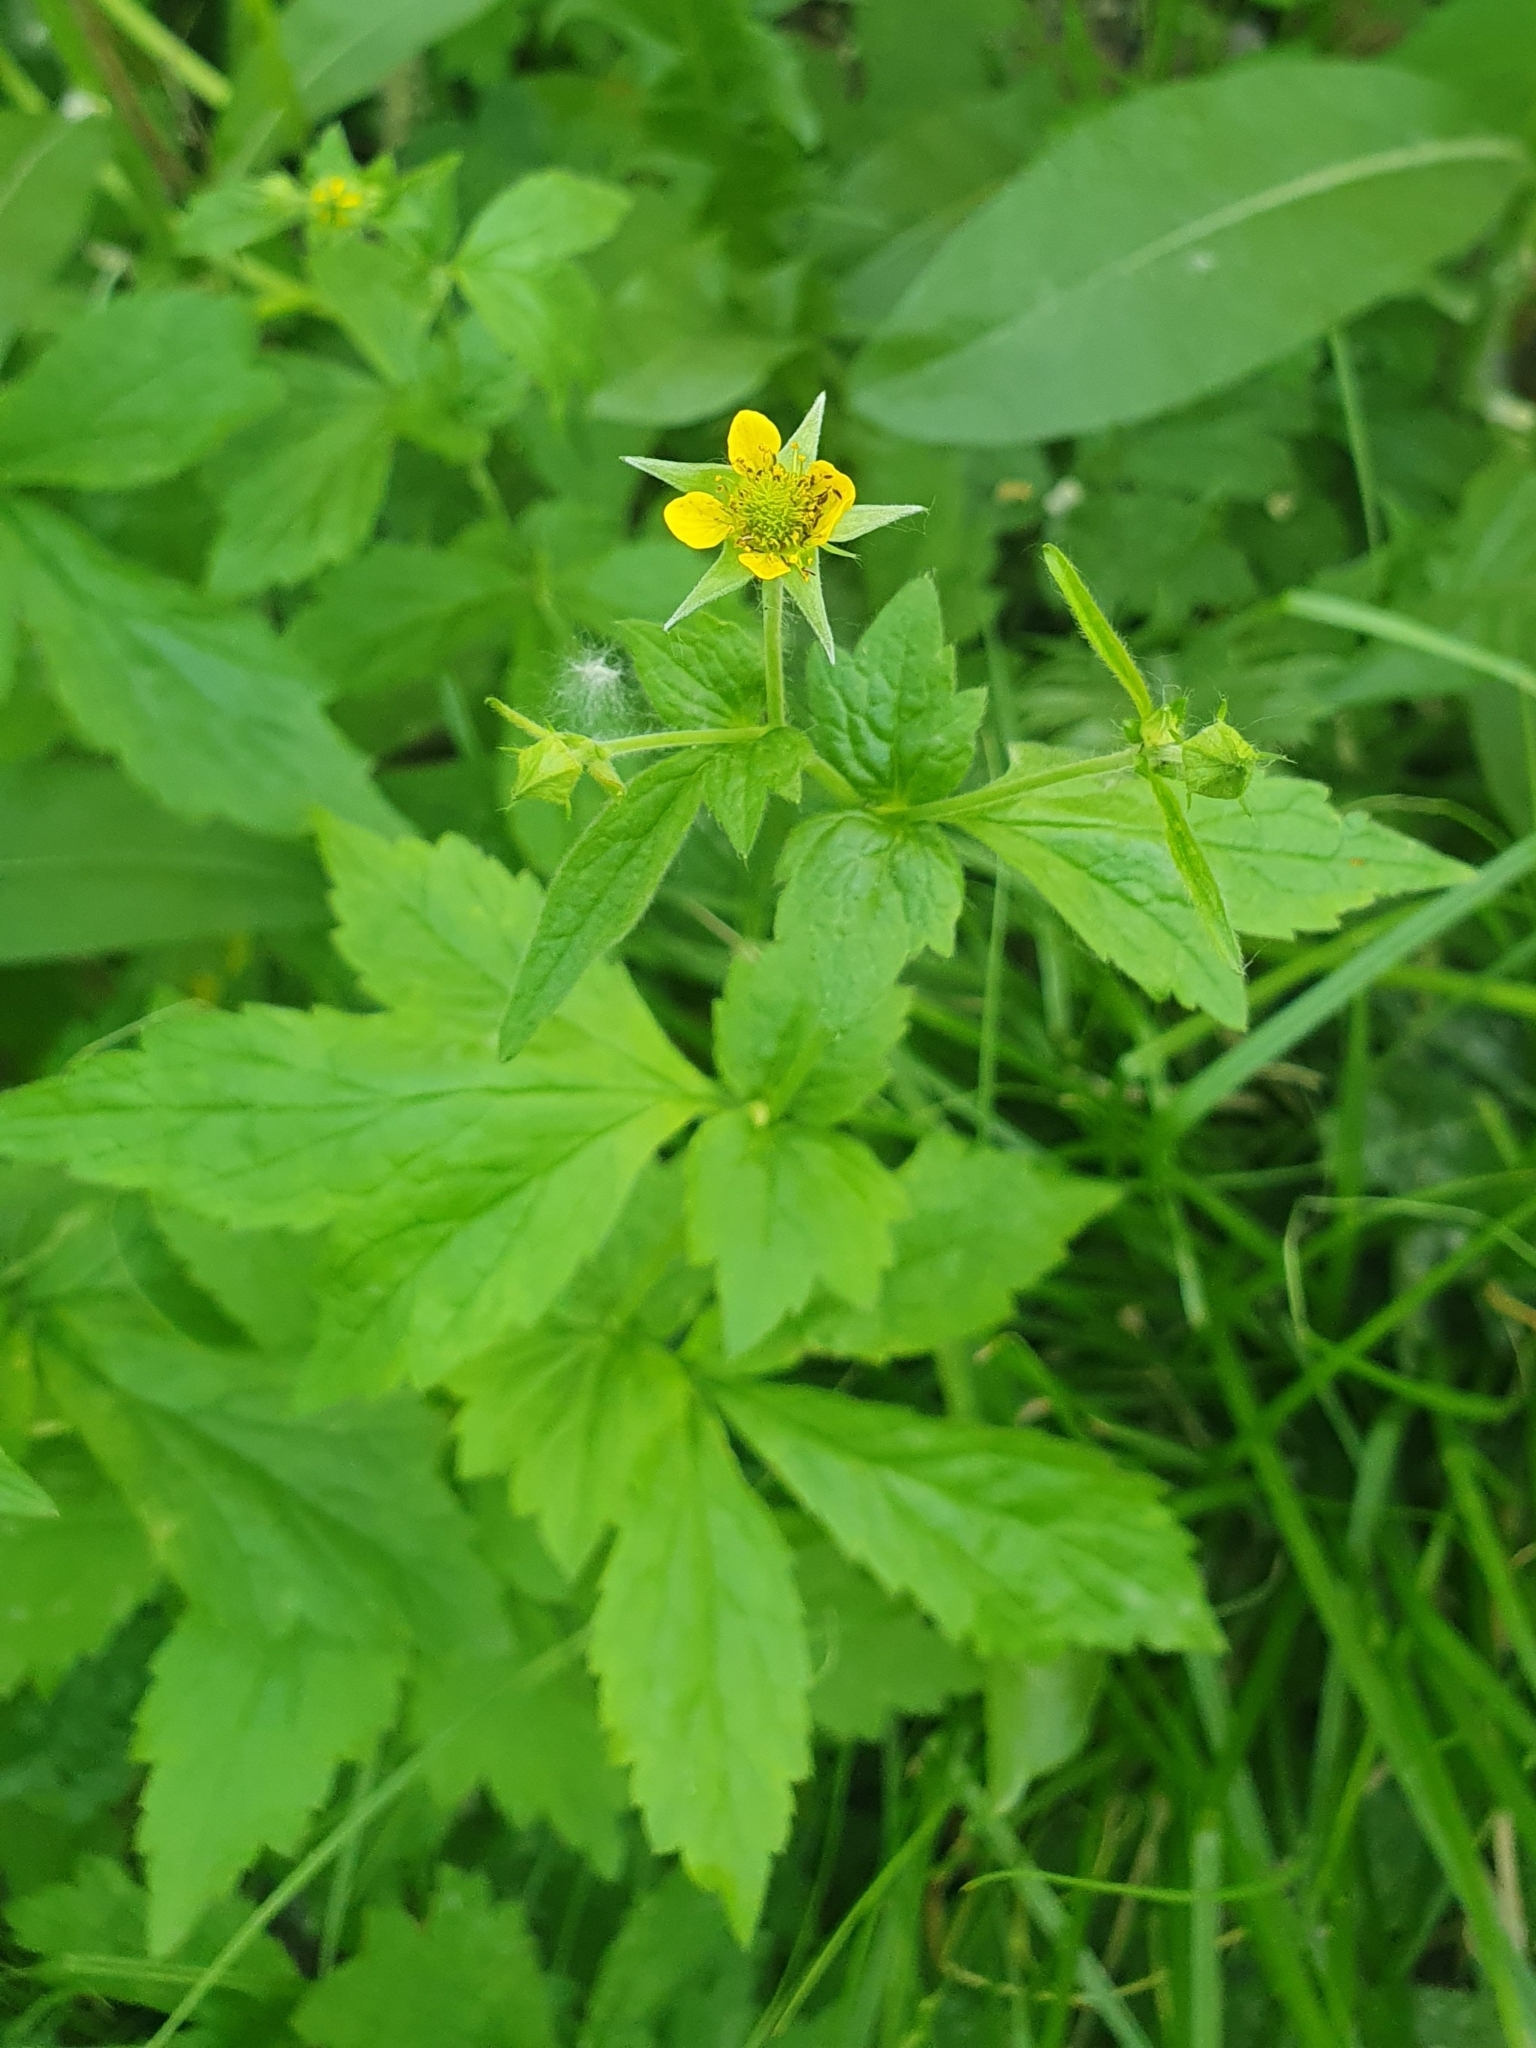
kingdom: Plantae
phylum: Tracheophyta
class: Magnoliopsida
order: Rosales
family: Rosaceae
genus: Geum
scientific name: Geum urbanum
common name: Wood avens
